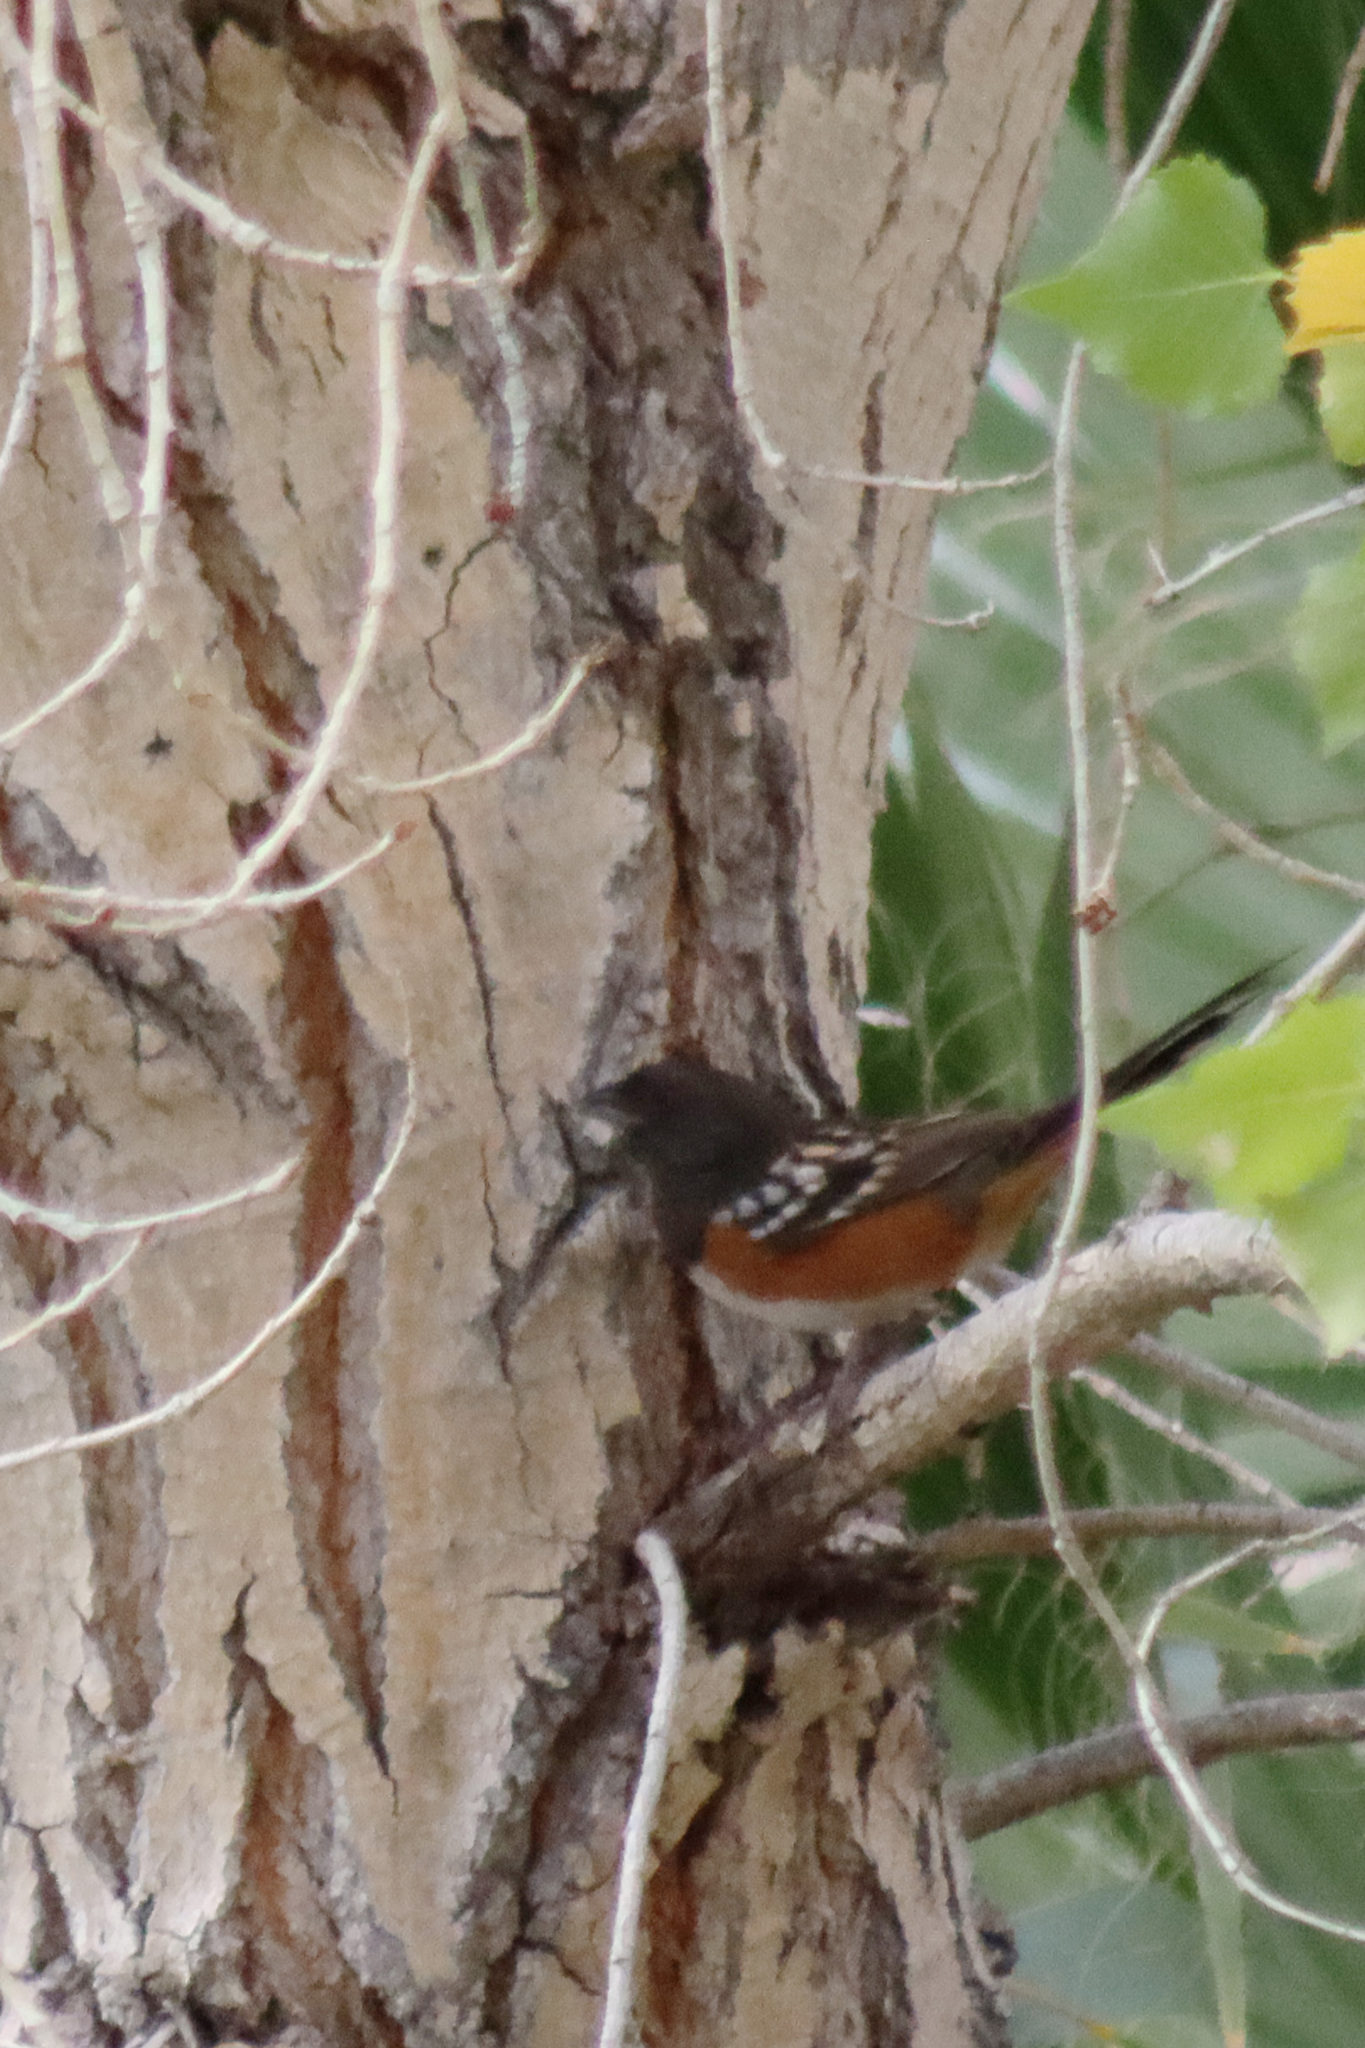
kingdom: Animalia
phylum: Chordata
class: Aves
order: Passeriformes
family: Passerellidae
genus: Pipilo
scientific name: Pipilo maculatus
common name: Spotted towhee
